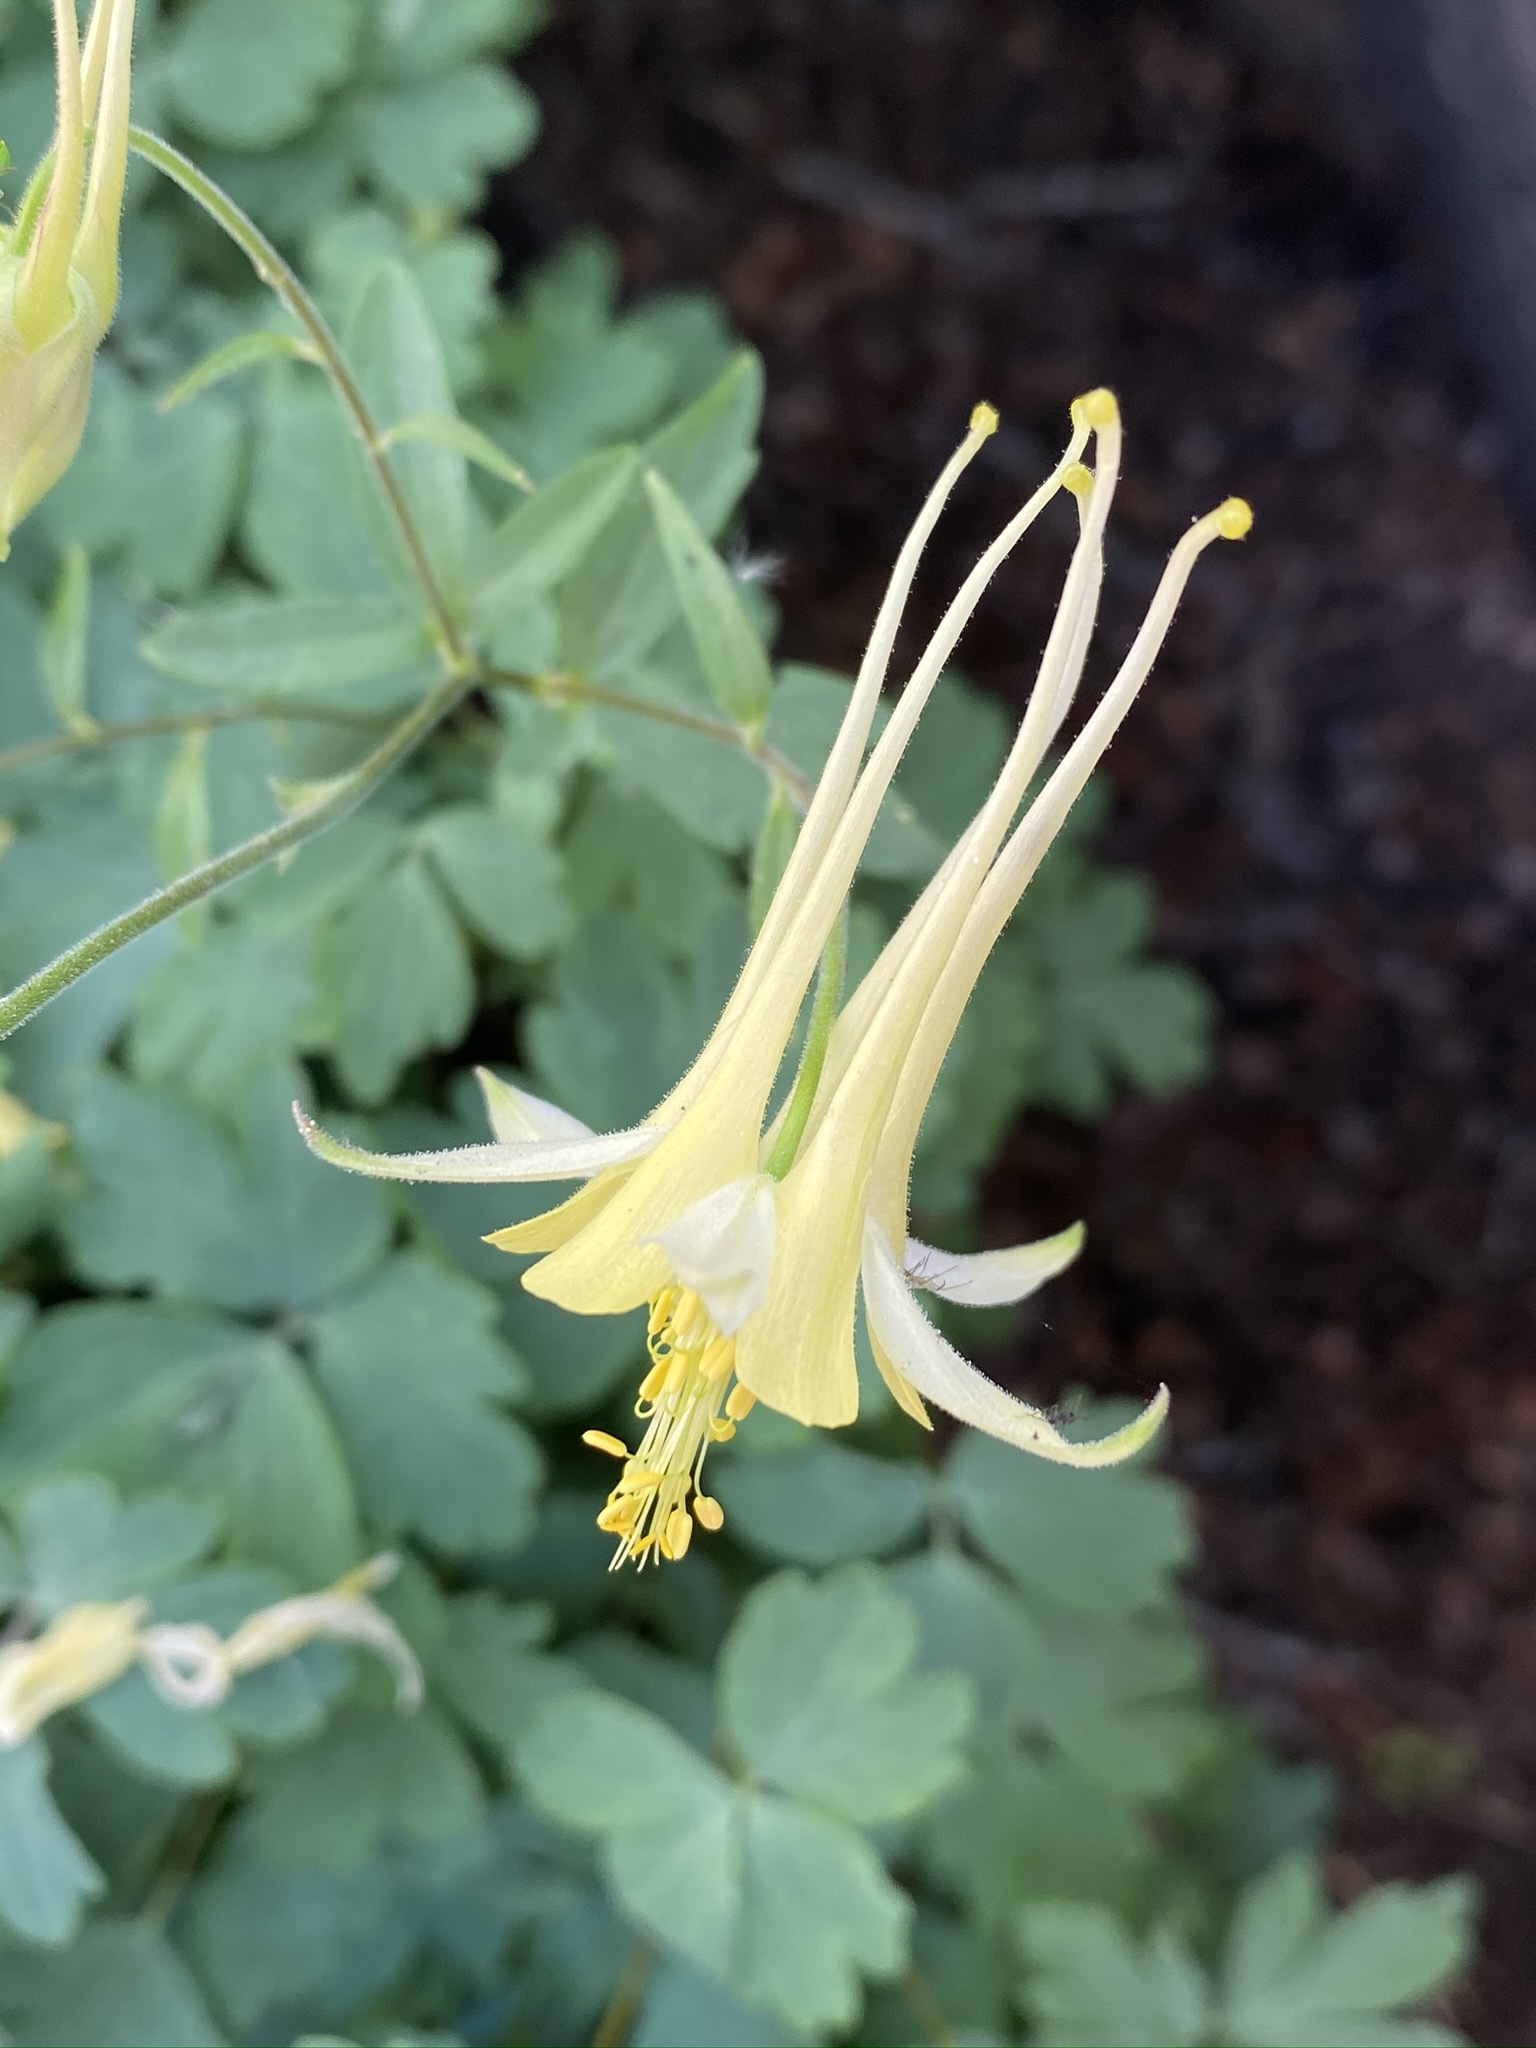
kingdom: Plantae
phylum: Tracheophyta
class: Magnoliopsida
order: Ranunculales
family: Ranunculaceae
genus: Aquilegia
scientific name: Aquilegia pubescens
